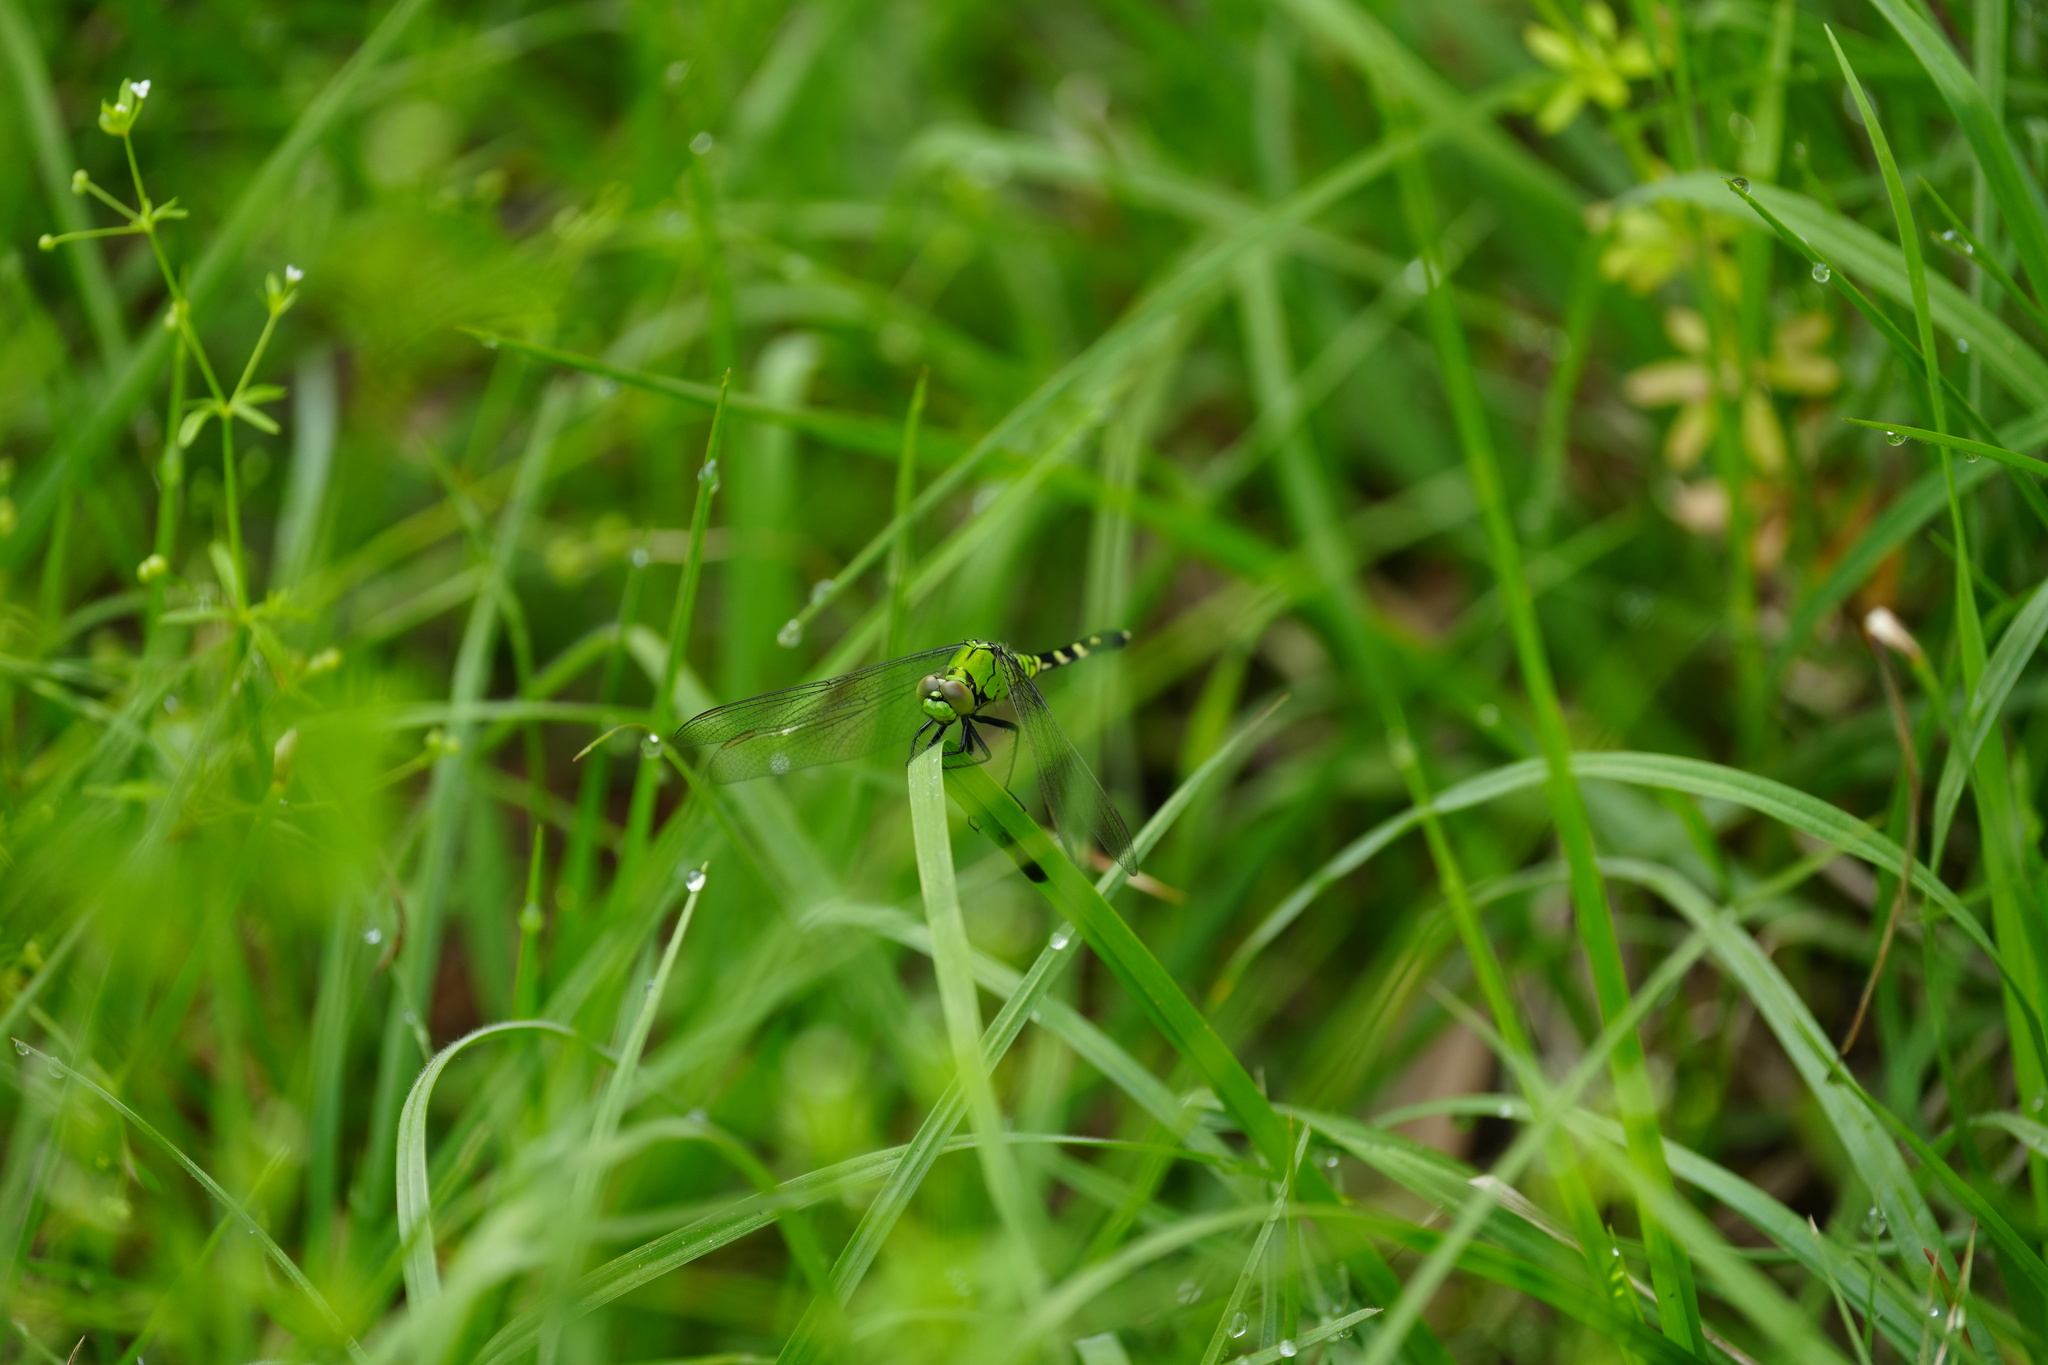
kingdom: Animalia
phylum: Arthropoda
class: Insecta
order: Odonata
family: Libellulidae
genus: Erythemis
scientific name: Erythemis simplicicollis
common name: Eastern pondhawk
